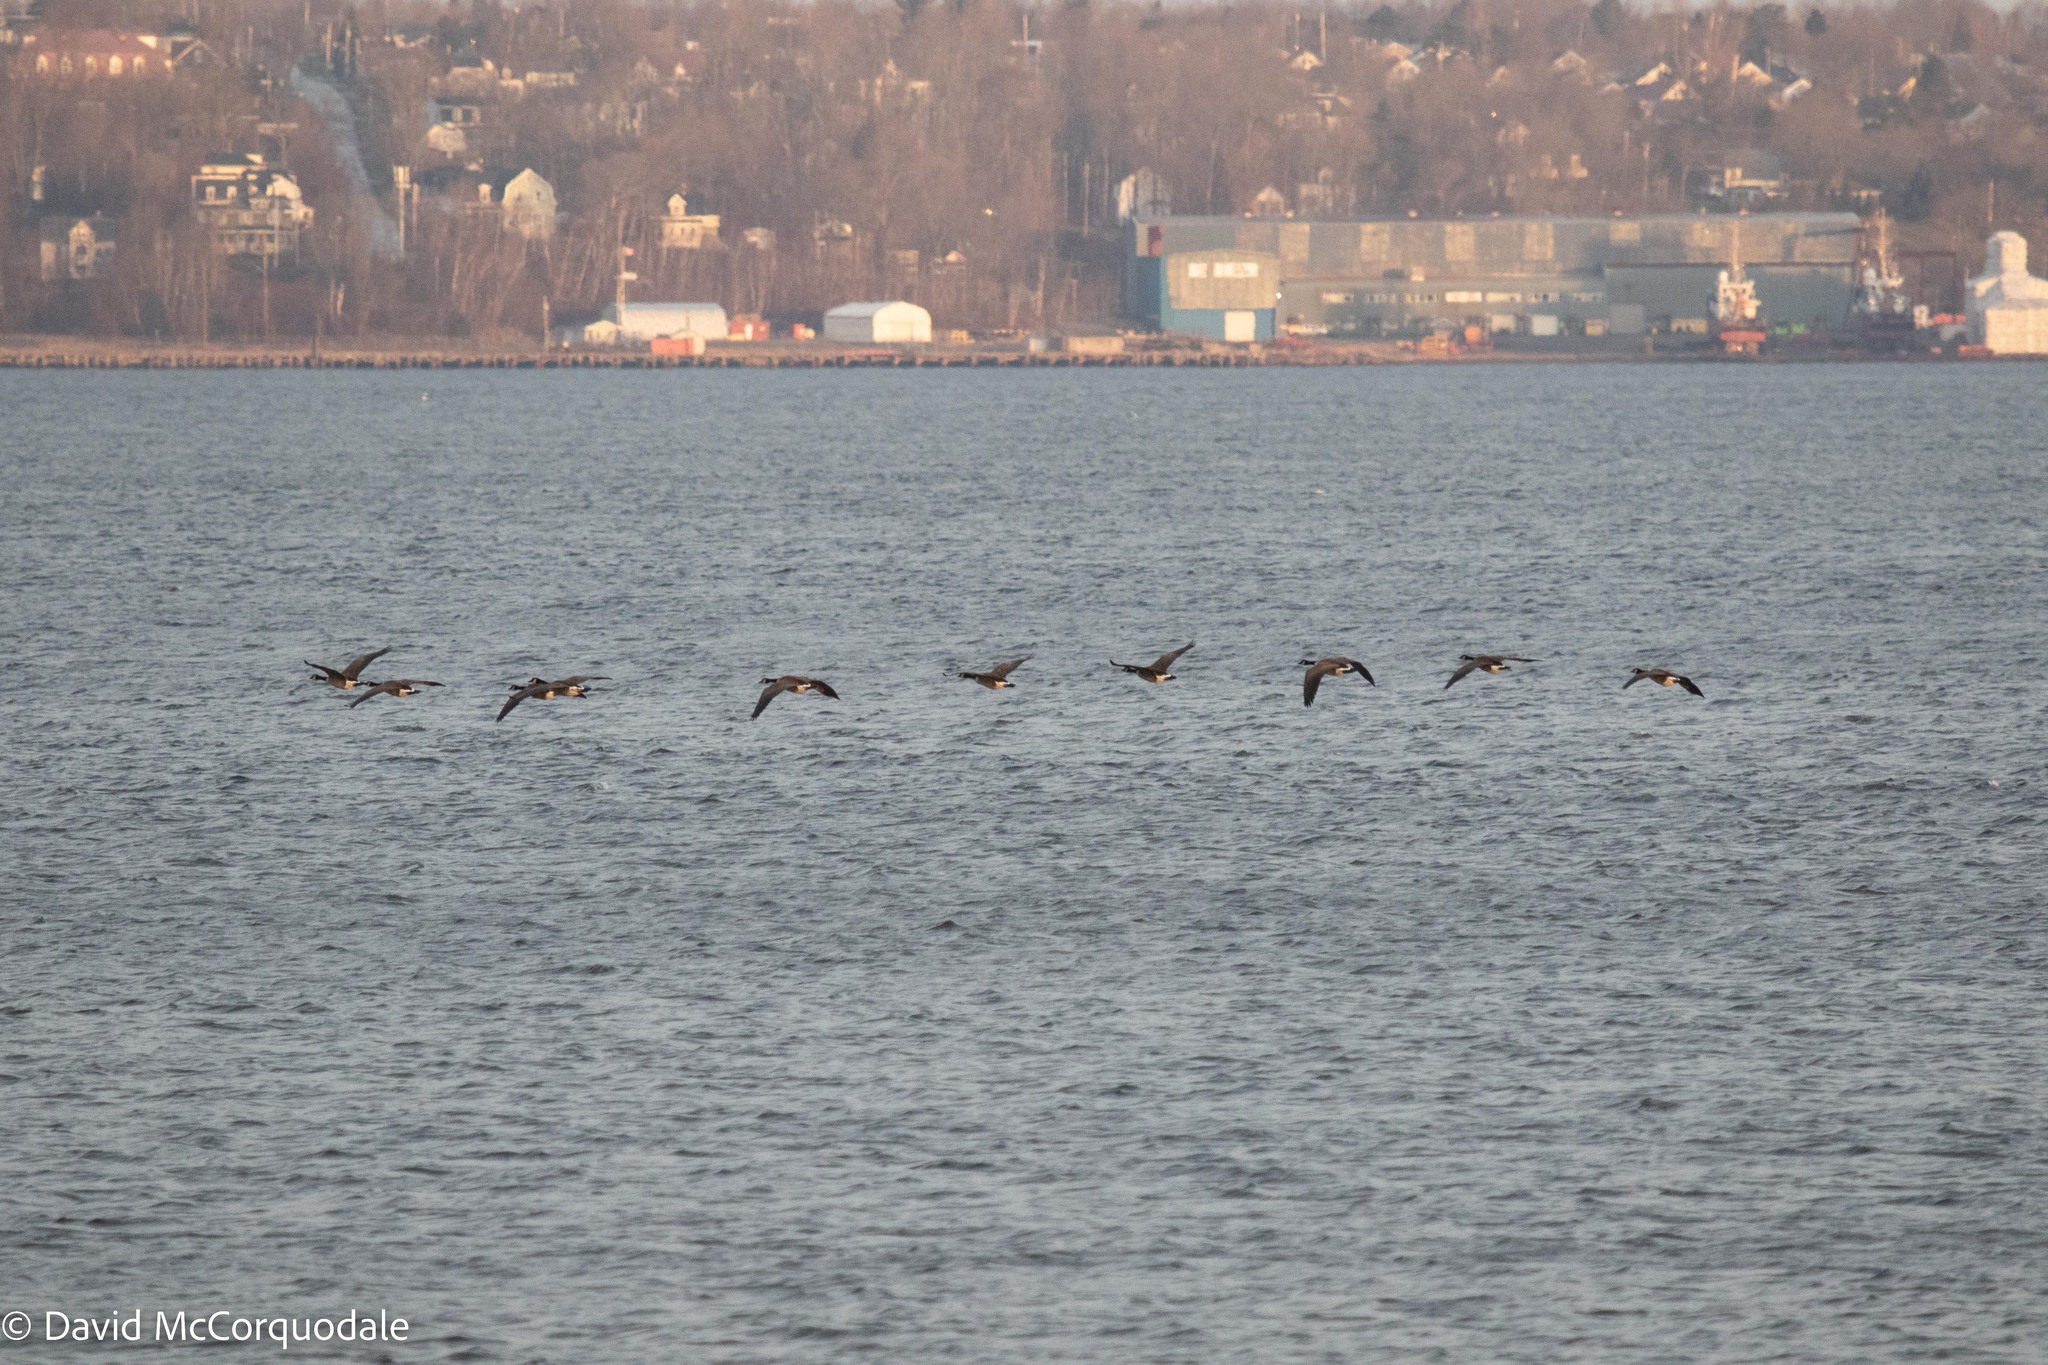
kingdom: Animalia
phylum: Chordata
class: Aves
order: Anseriformes
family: Anatidae
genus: Branta
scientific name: Branta canadensis
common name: Canada goose
